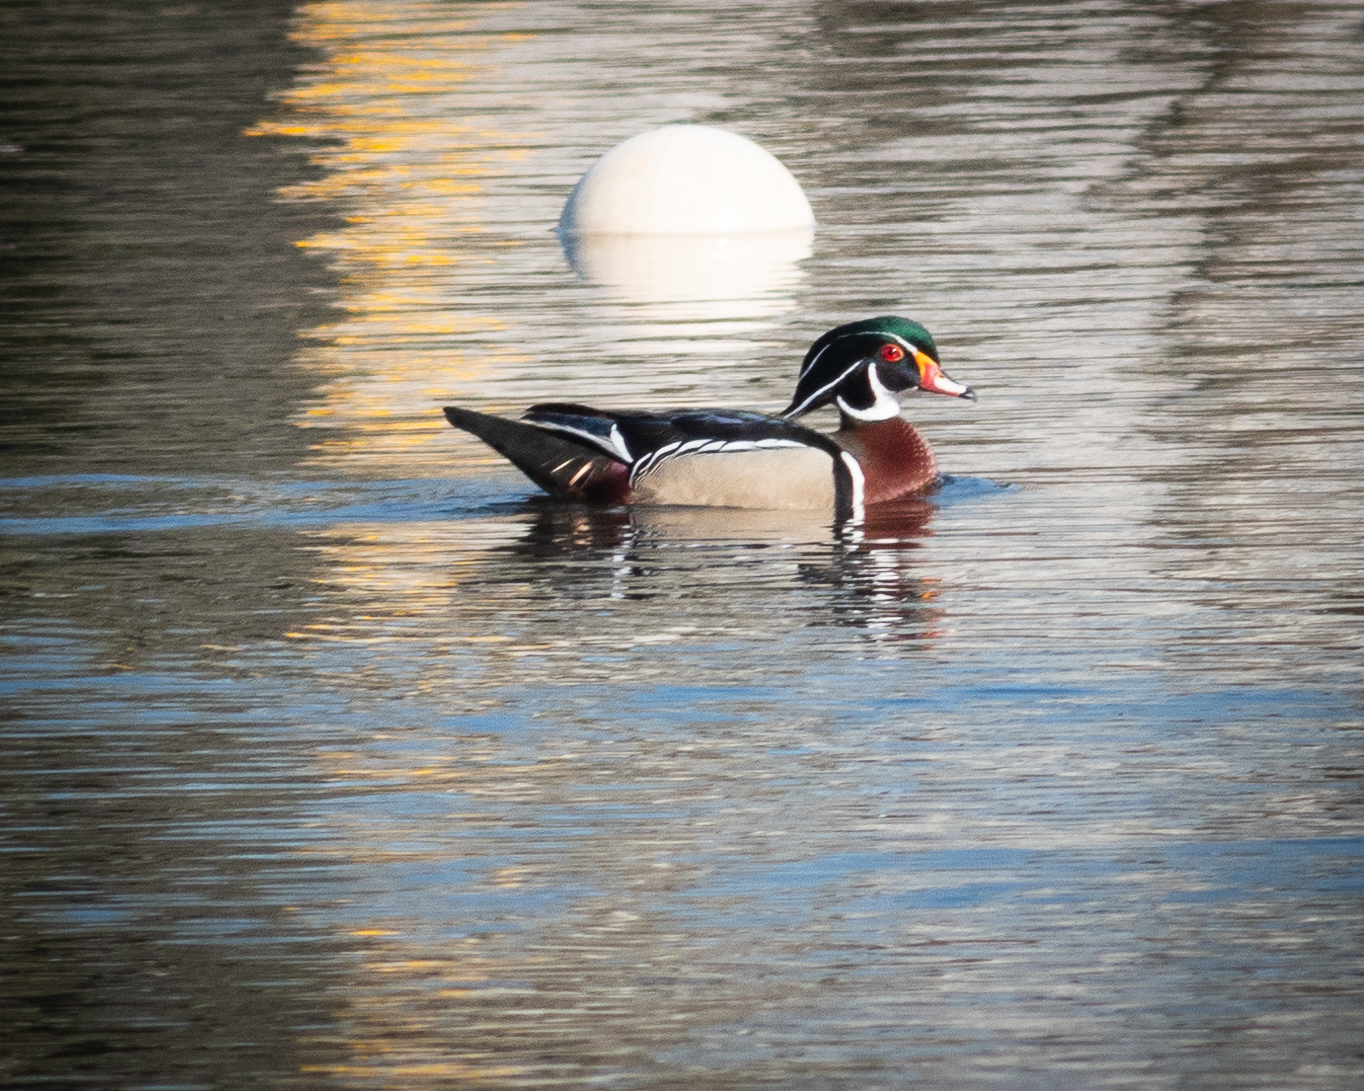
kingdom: Animalia
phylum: Chordata
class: Aves
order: Anseriformes
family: Anatidae
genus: Aix
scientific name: Aix sponsa
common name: Wood duck
